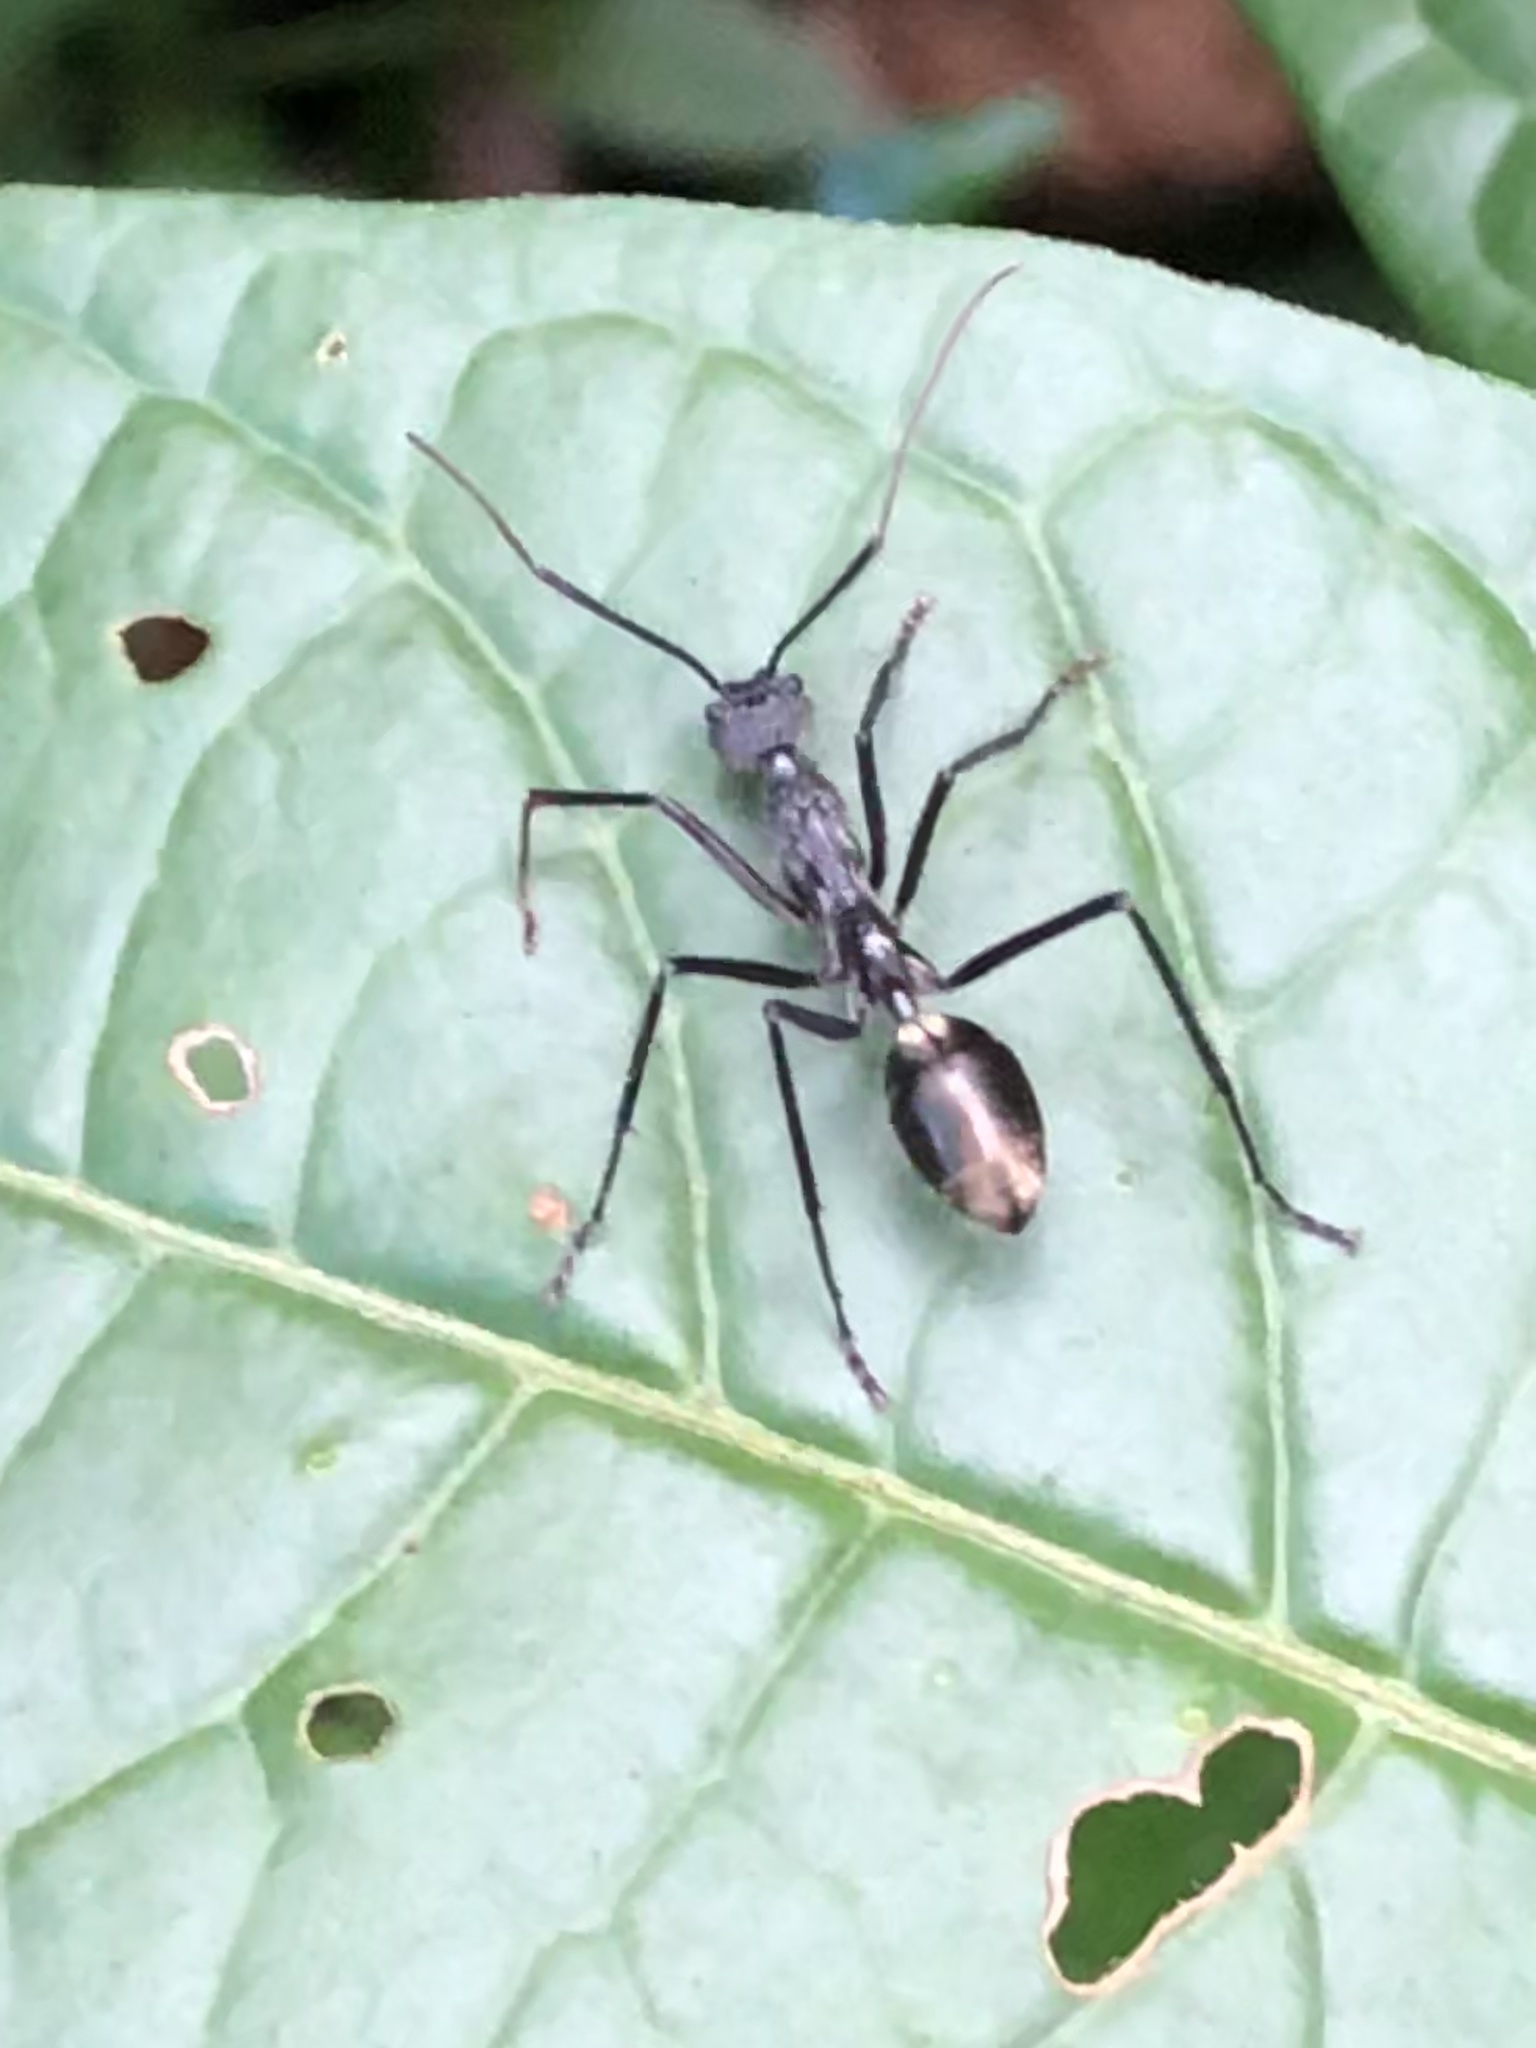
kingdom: Animalia
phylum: Arthropoda
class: Insecta
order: Hymenoptera
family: Formicidae
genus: Dolichoderus
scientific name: Dolichoderus rugosus
